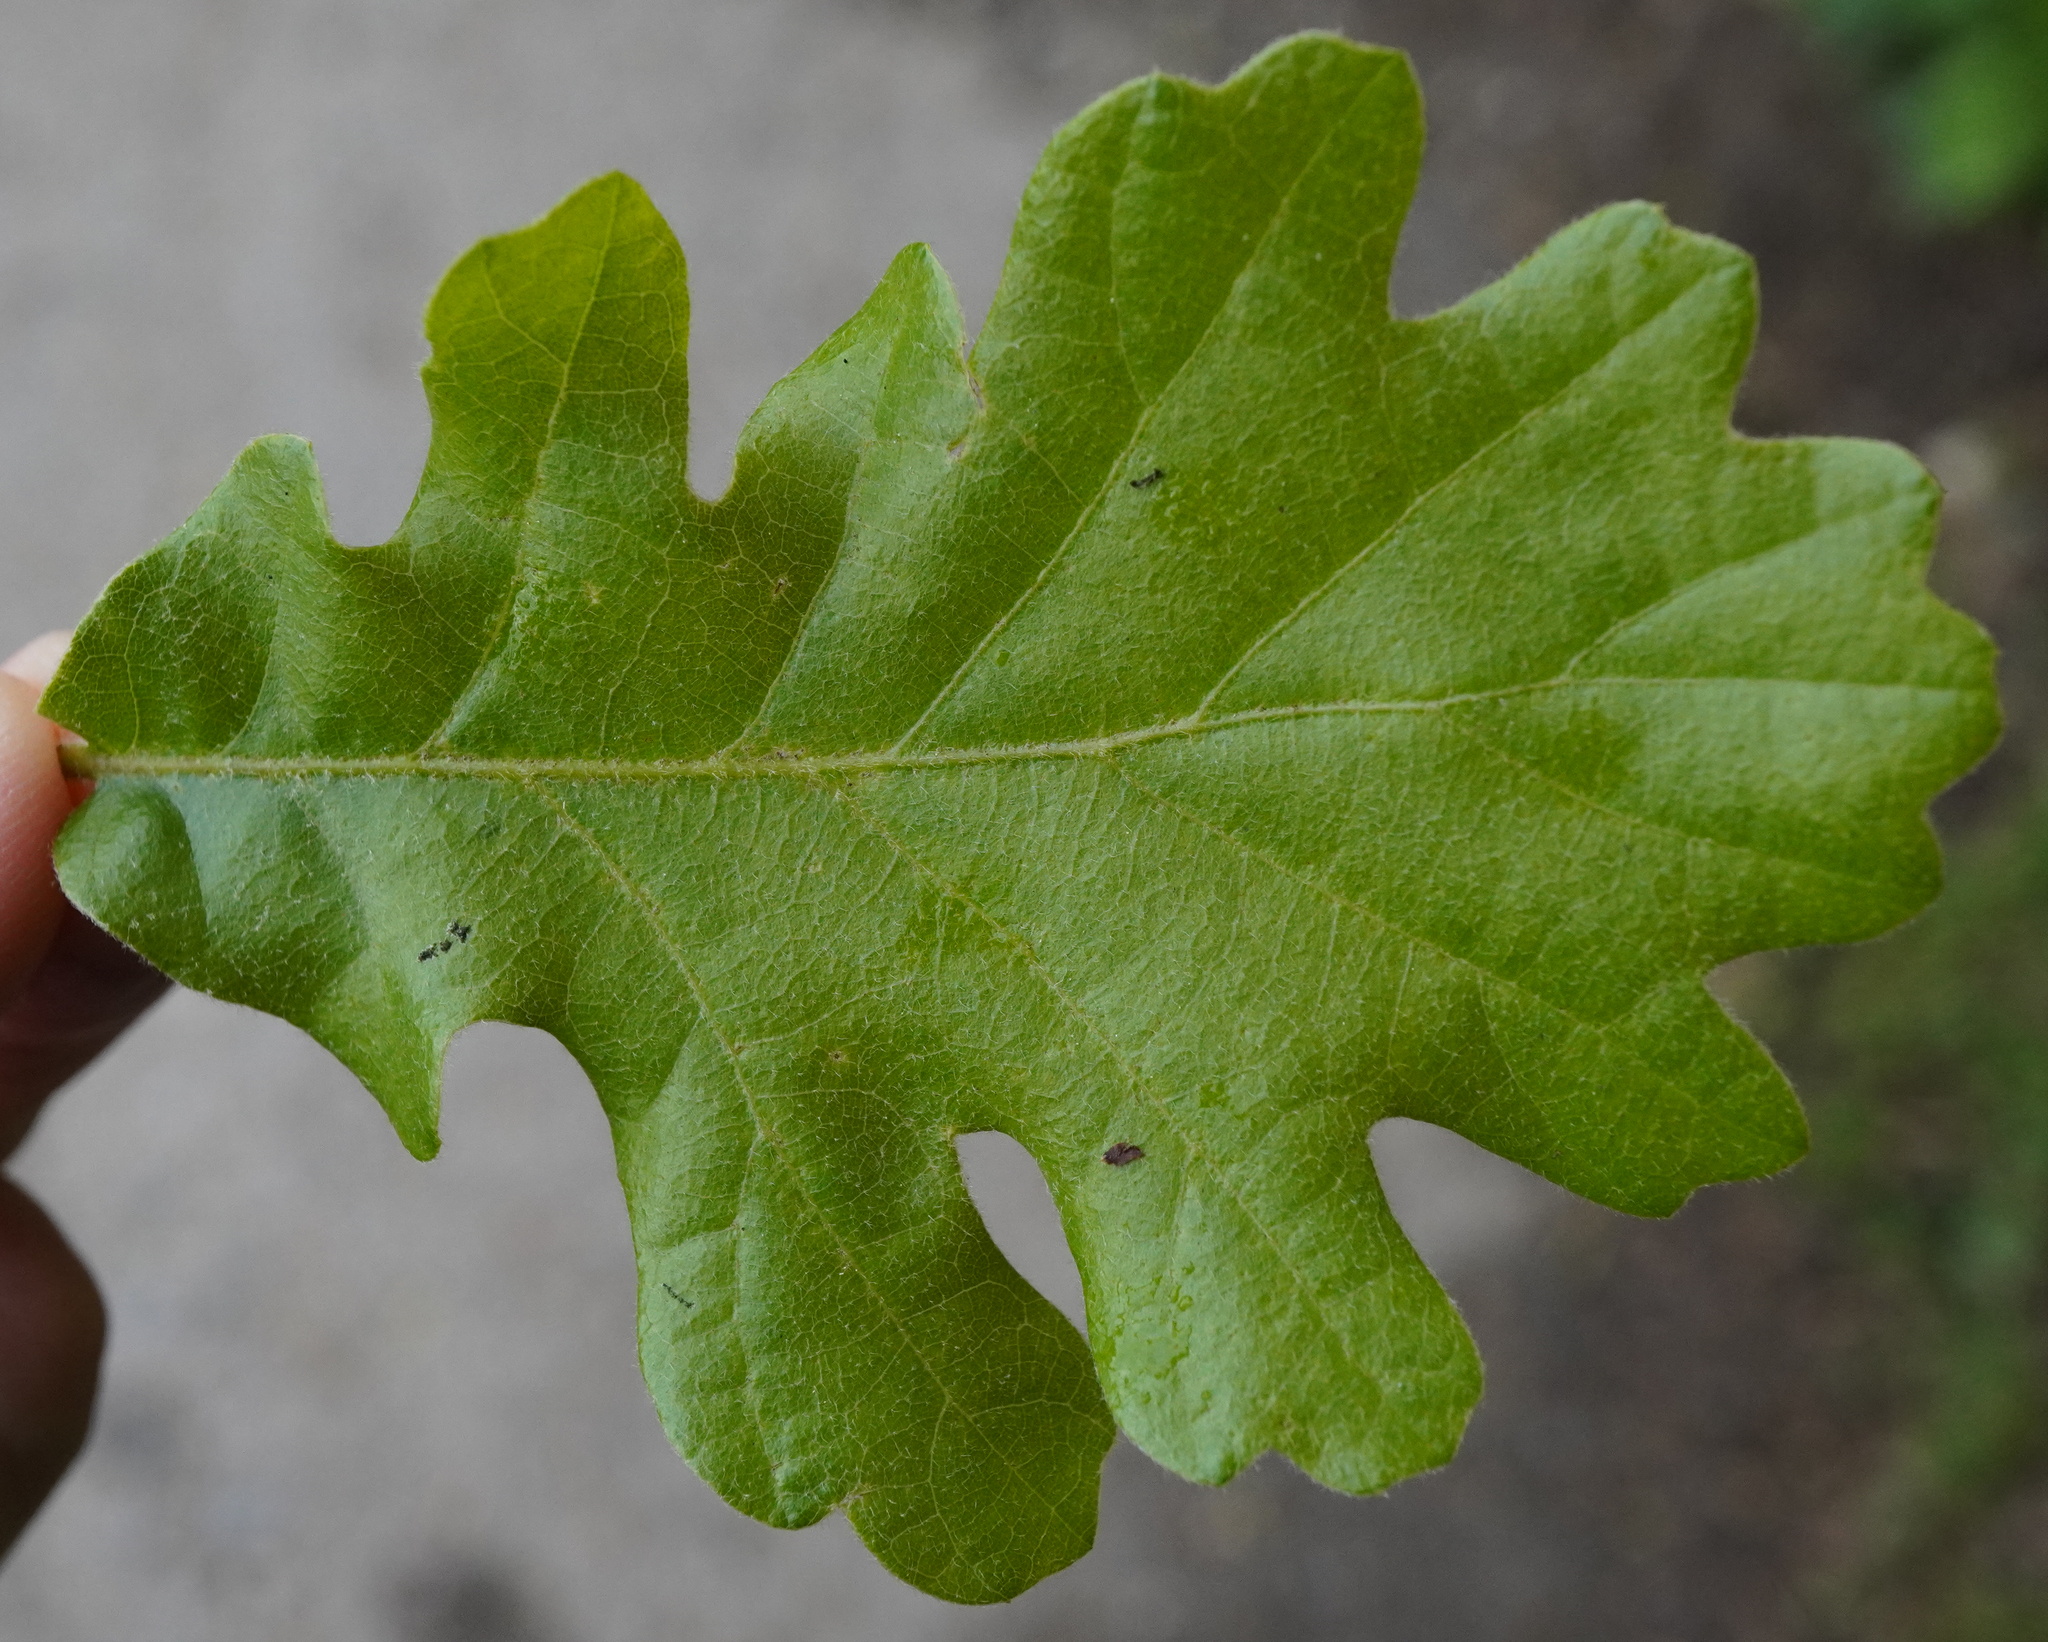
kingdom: Plantae
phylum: Tracheophyta
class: Magnoliopsida
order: Fagales
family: Fagaceae
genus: Quercus
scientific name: Quercus pubescens
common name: Downy oak
